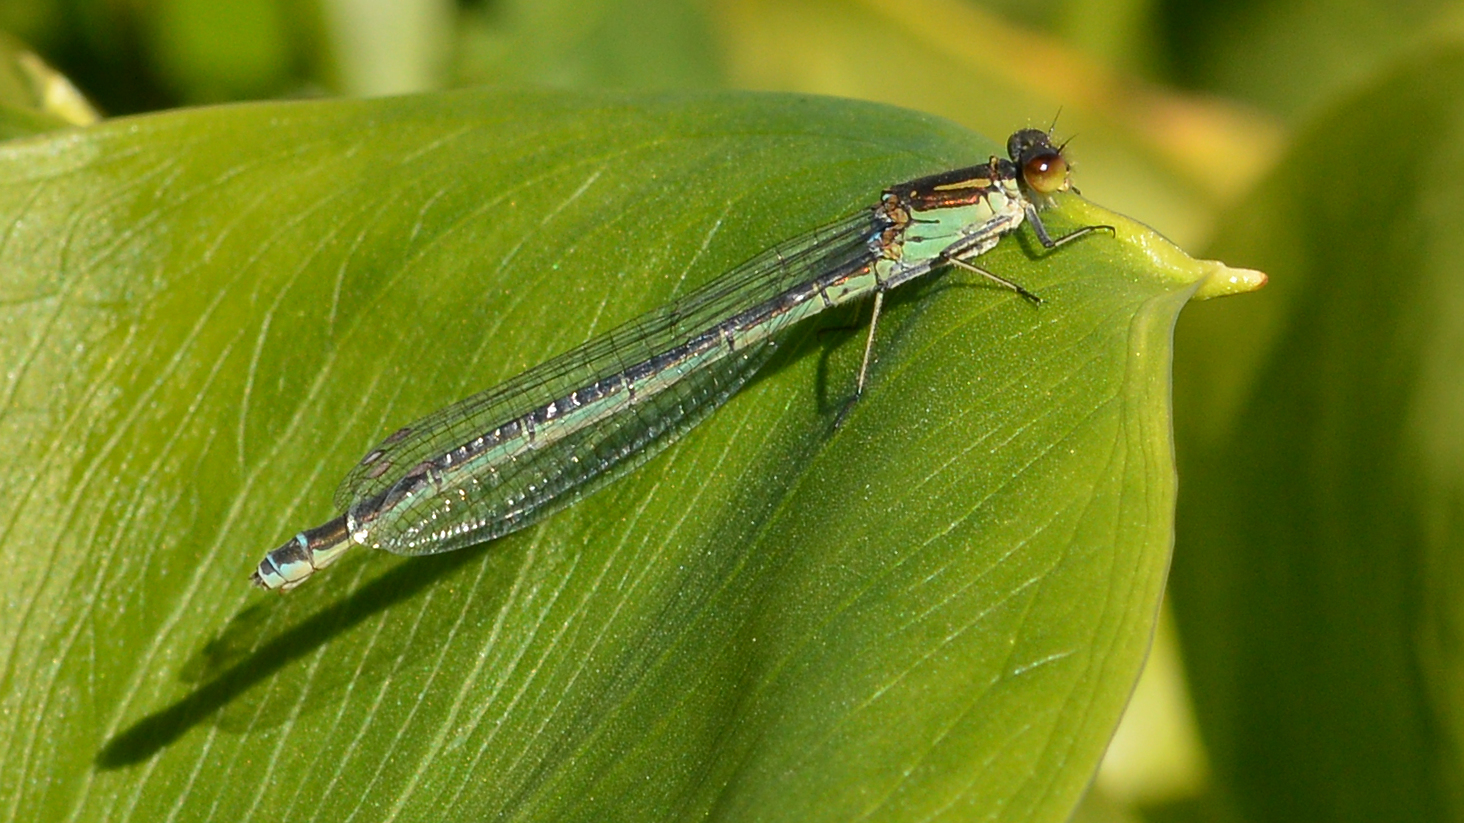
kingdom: Animalia
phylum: Arthropoda
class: Insecta
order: Odonata
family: Coenagrionidae
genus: Erythromma
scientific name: Erythromma najas
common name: Red-eyed damselfly
